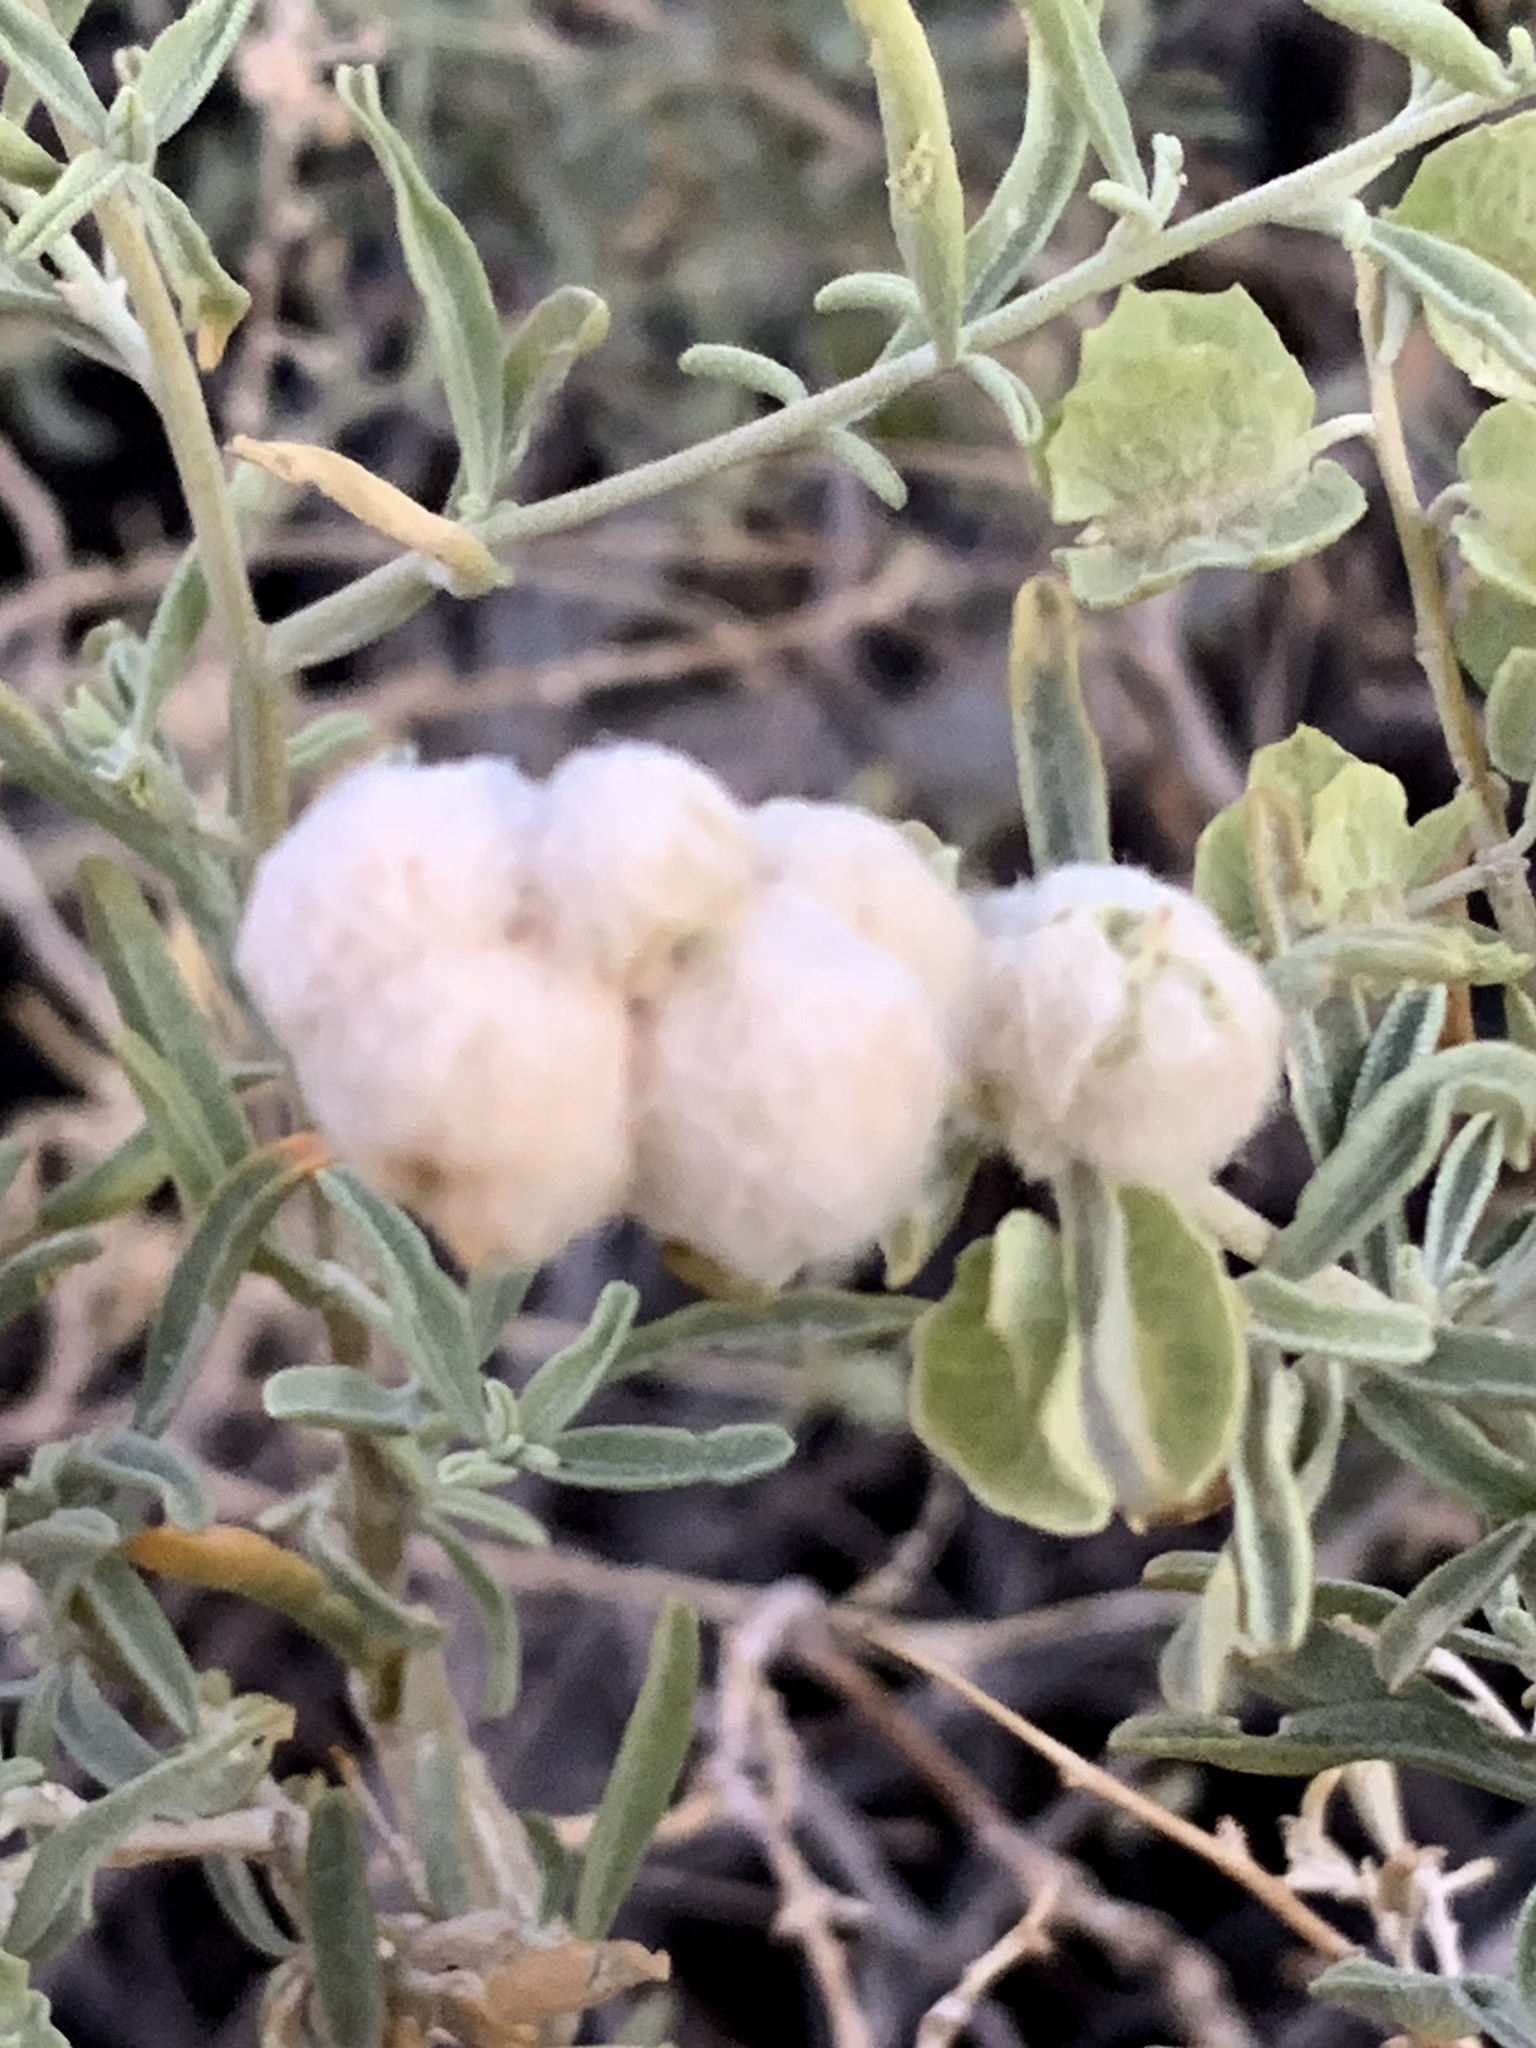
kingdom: Animalia
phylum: Arthropoda
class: Insecta
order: Diptera
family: Cecidomyiidae
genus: Asphondylia
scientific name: Asphondylia neomexicana
